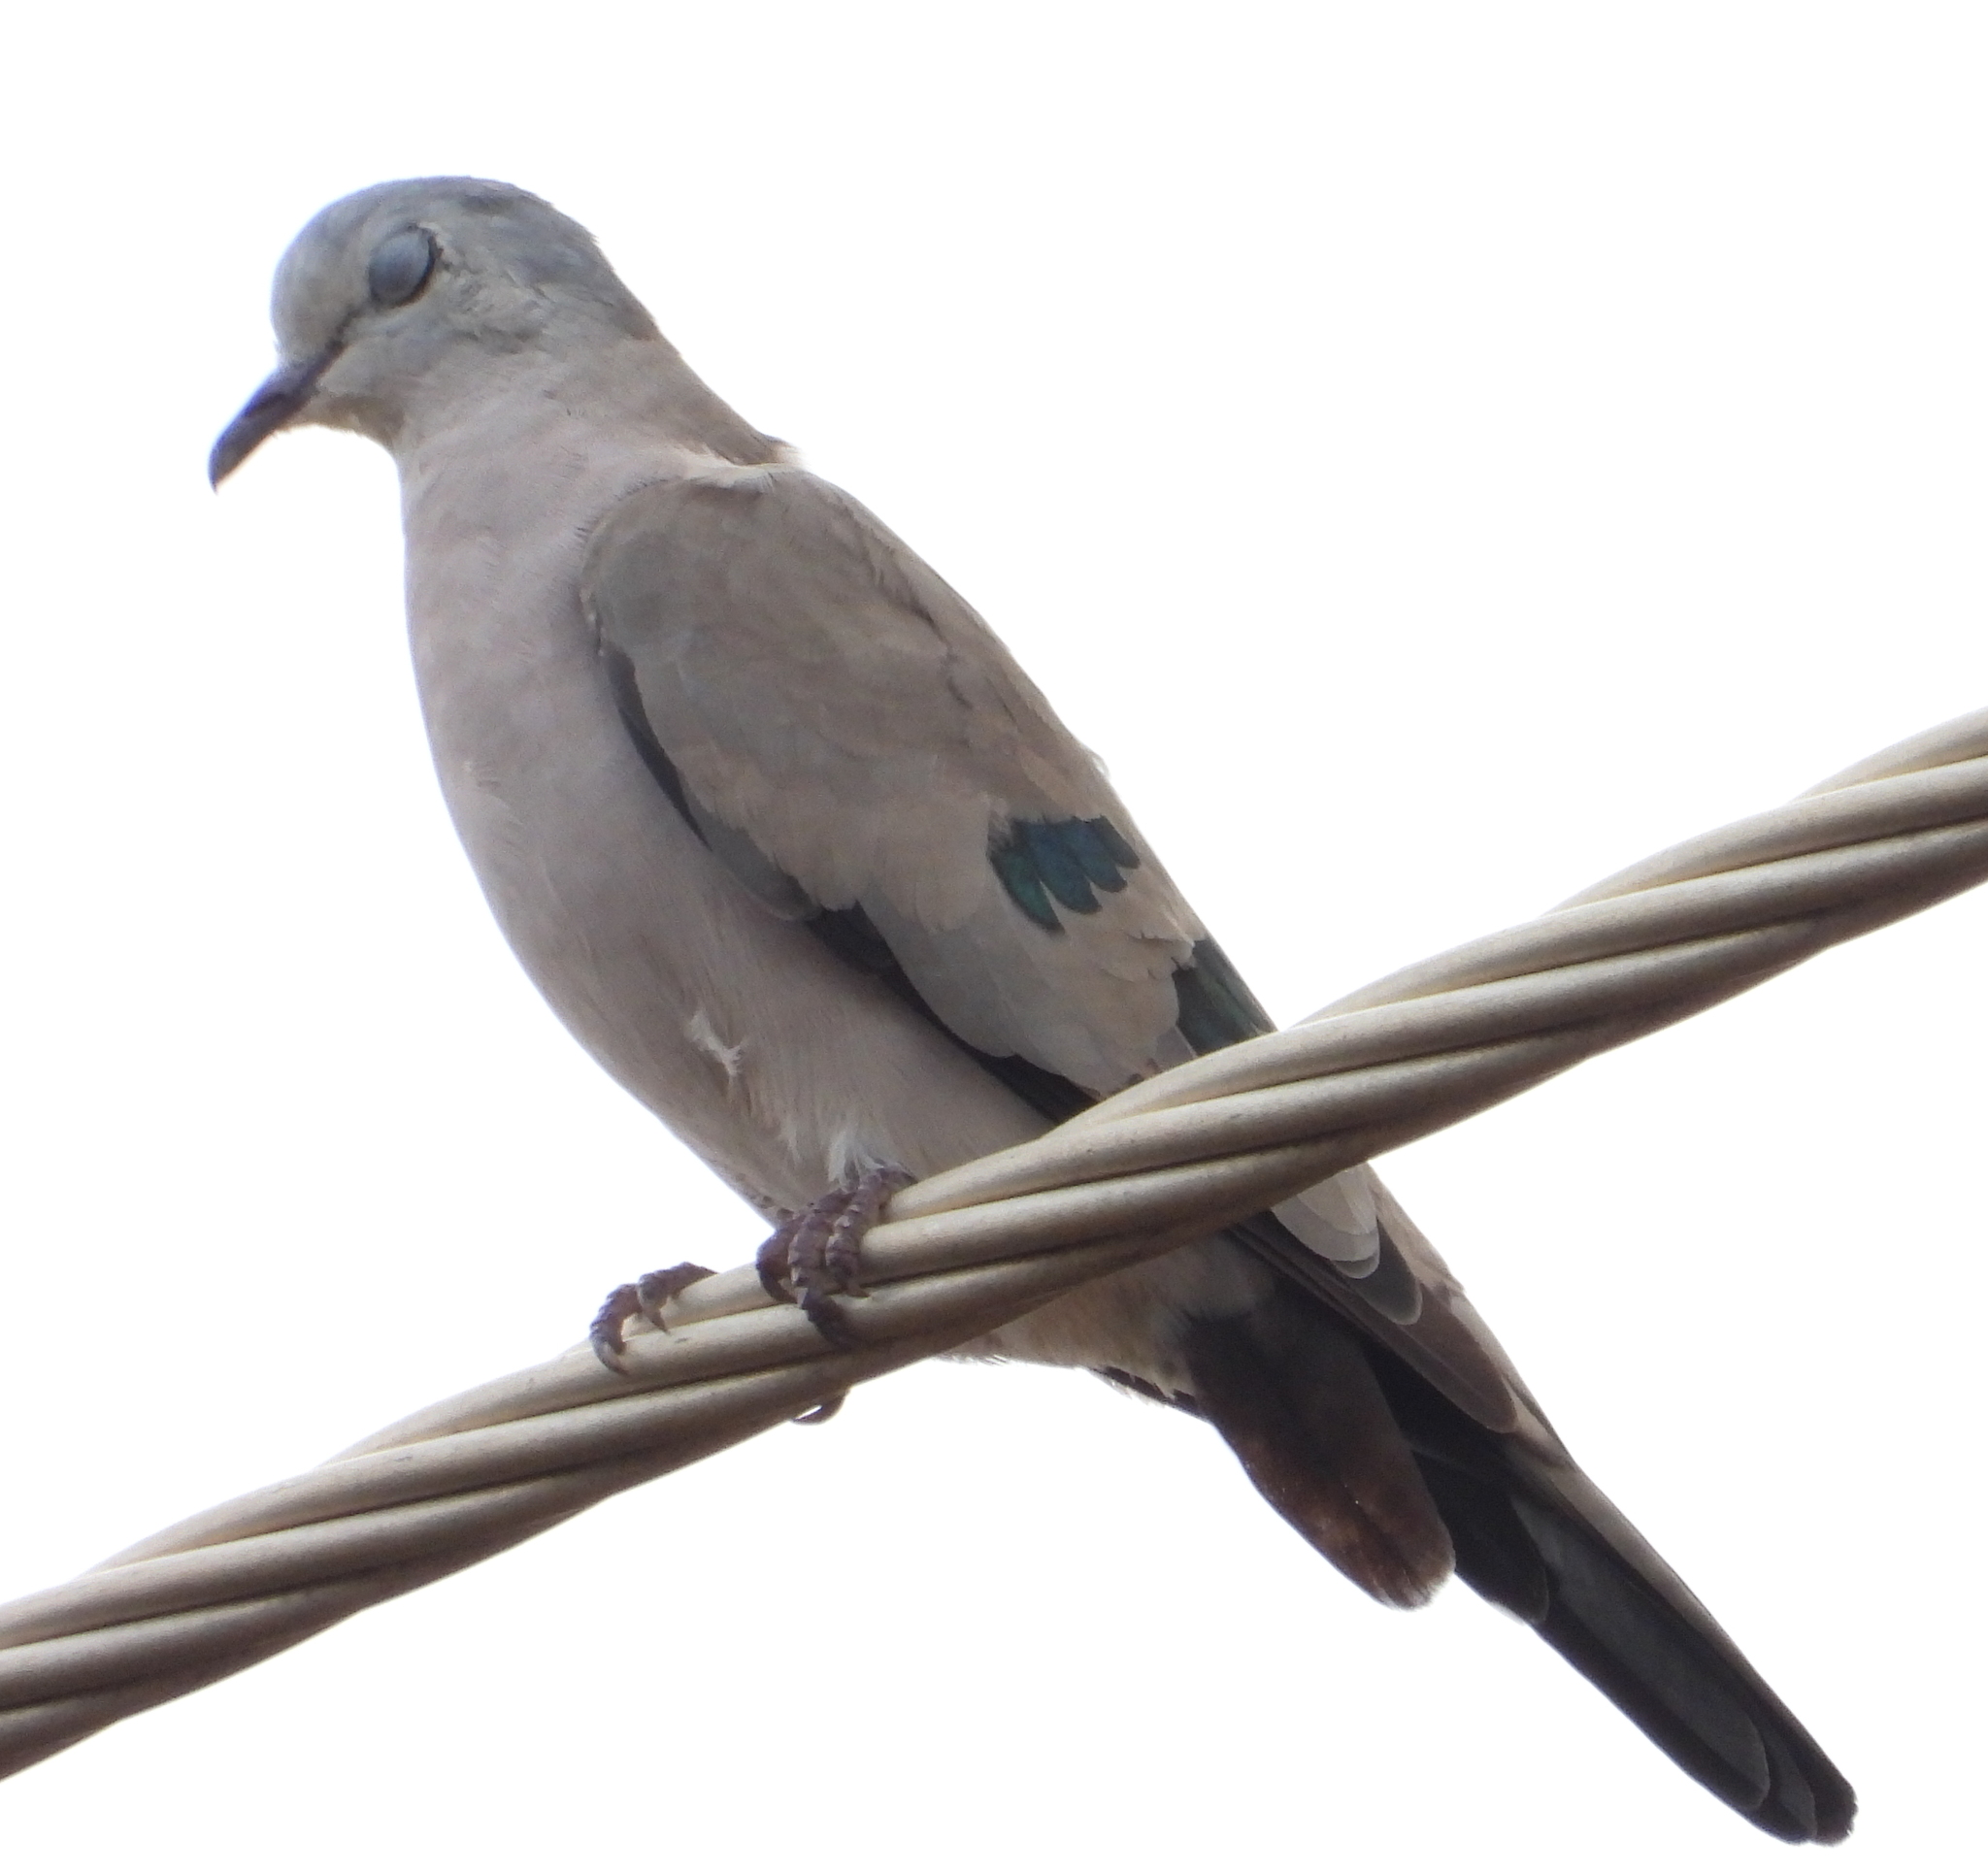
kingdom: Animalia
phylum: Chordata
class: Aves
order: Columbiformes
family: Columbidae
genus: Turtur
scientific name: Turtur chalcospilos
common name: Emerald-spotted wood dove
